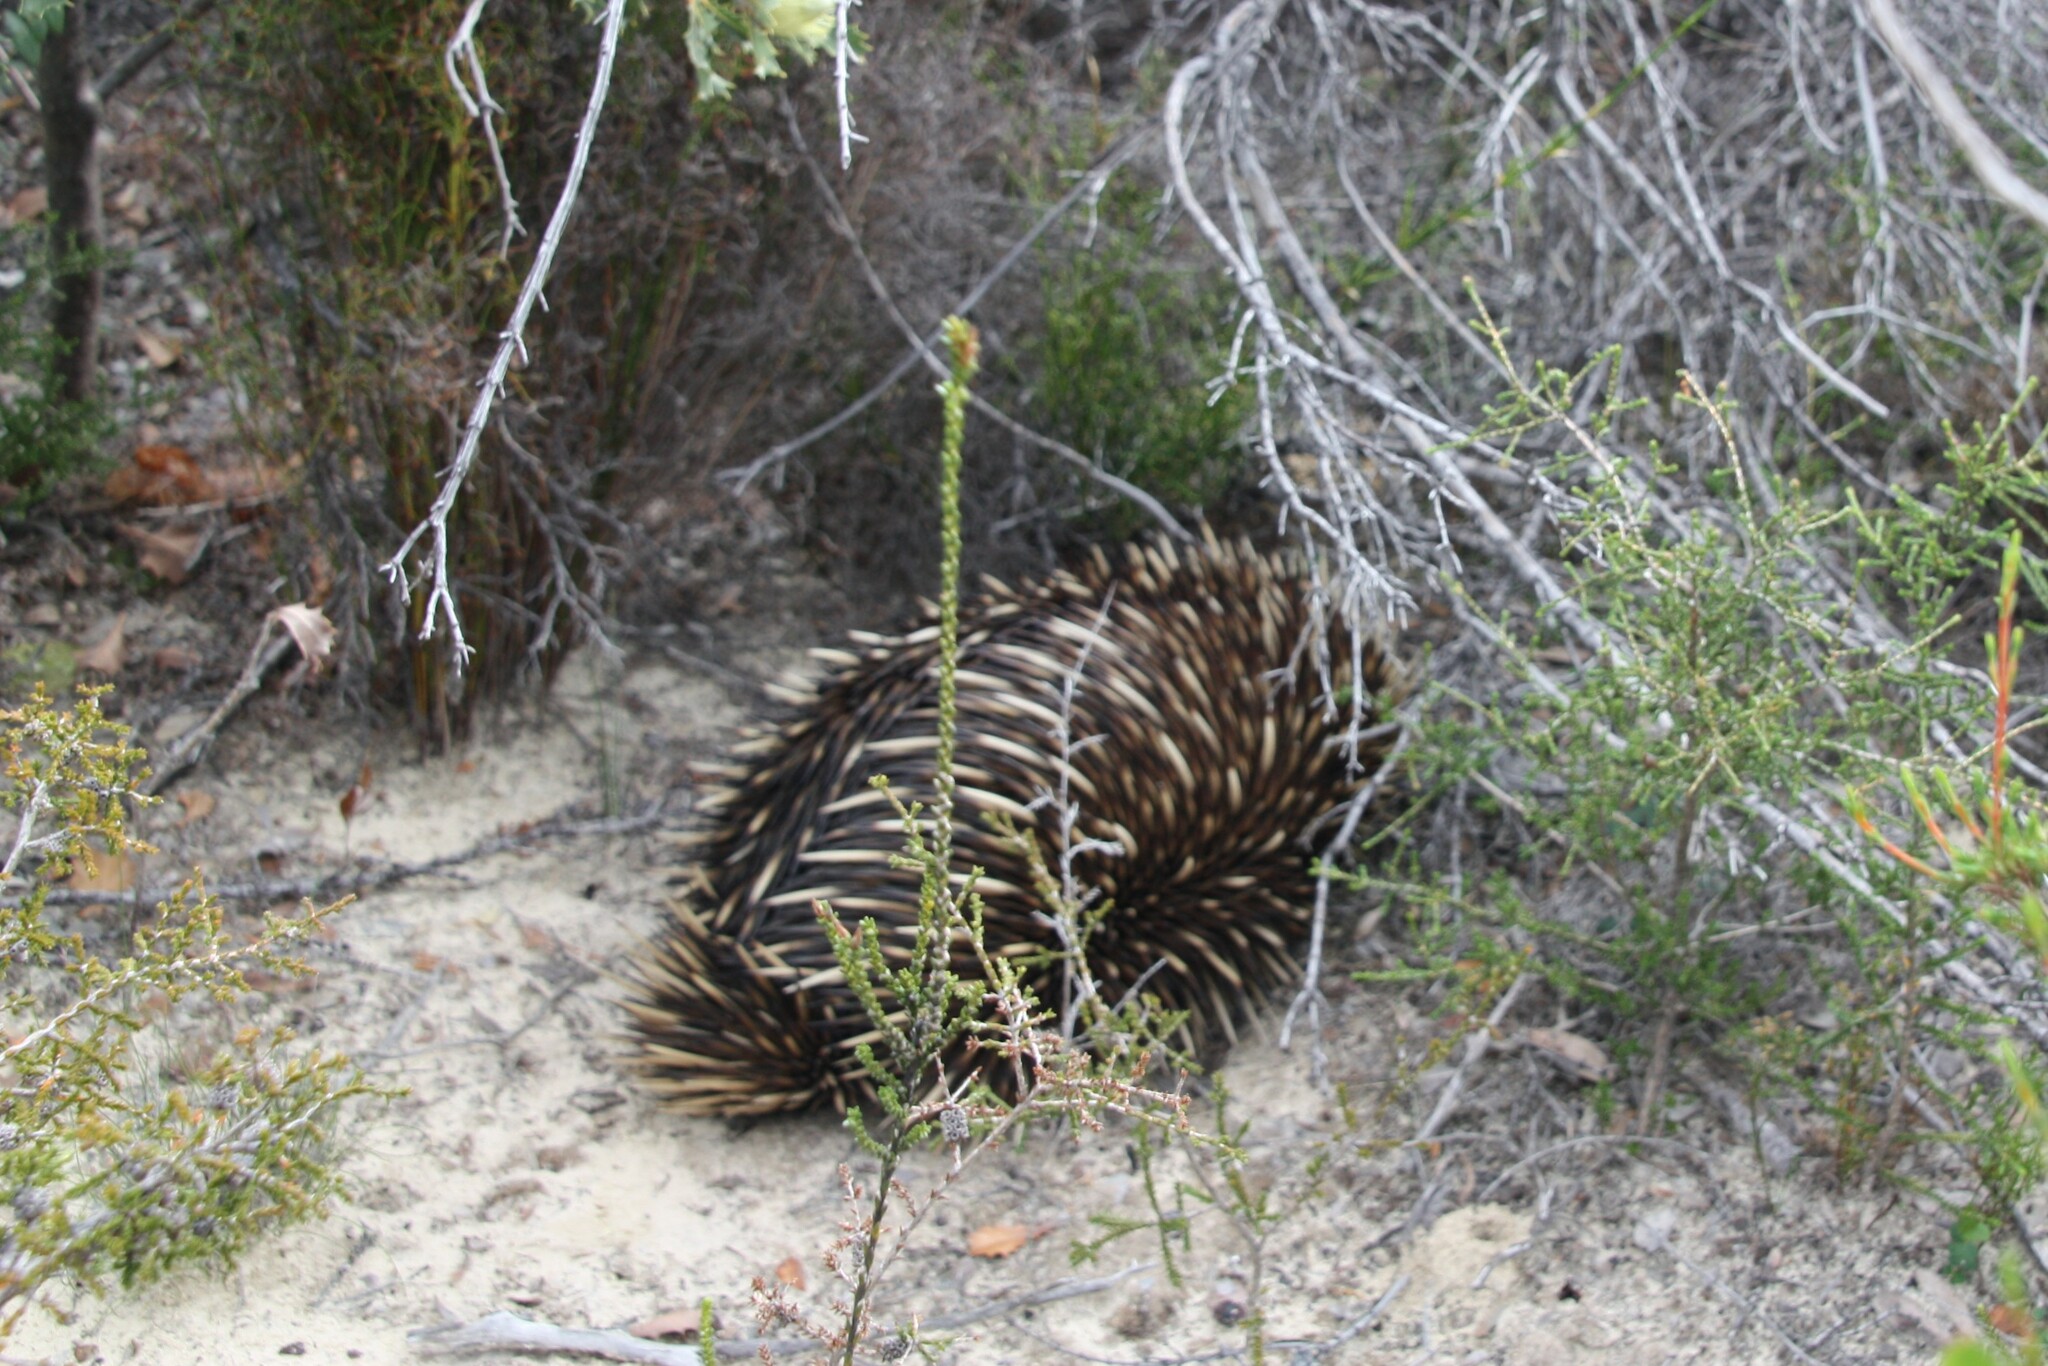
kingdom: Animalia
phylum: Chordata
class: Mammalia
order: Monotremata
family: Tachyglossidae
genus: Tachyglossus
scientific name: Tachyglossus aculeatus
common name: Short-beaked echidna
